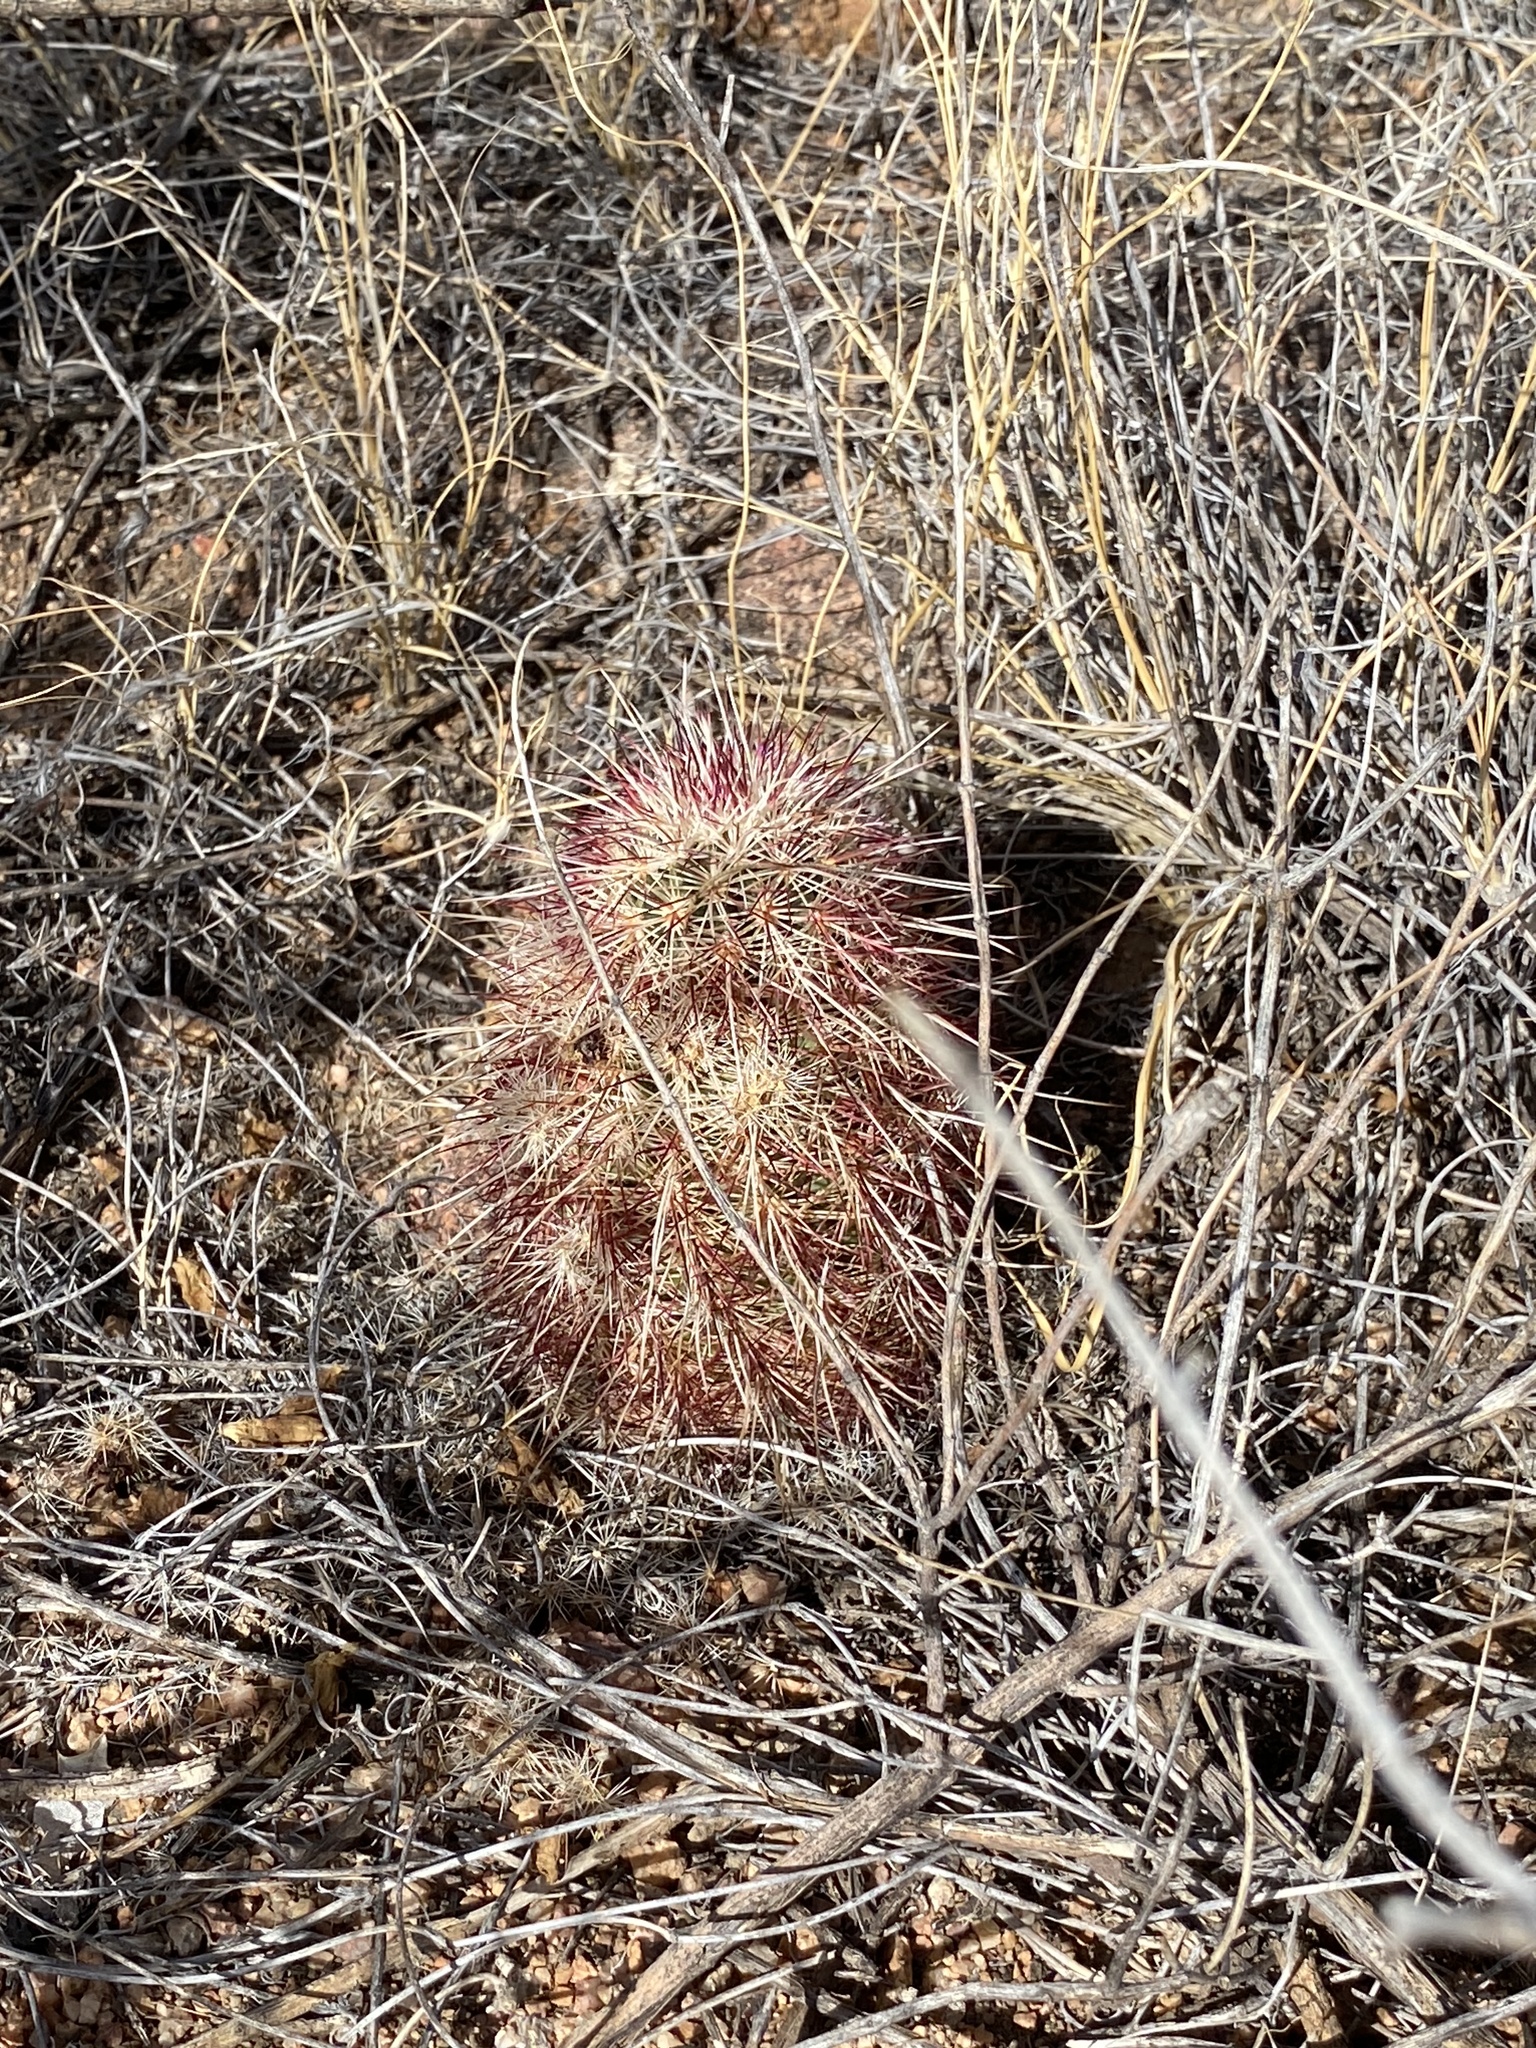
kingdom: Plantae
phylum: Tracheophyta
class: Magnoliopsida
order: Caryophyllales
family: Cactaceae
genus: Echinocereus
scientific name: Echinocereus viridiflorus
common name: Nylon hedgehog cactus
